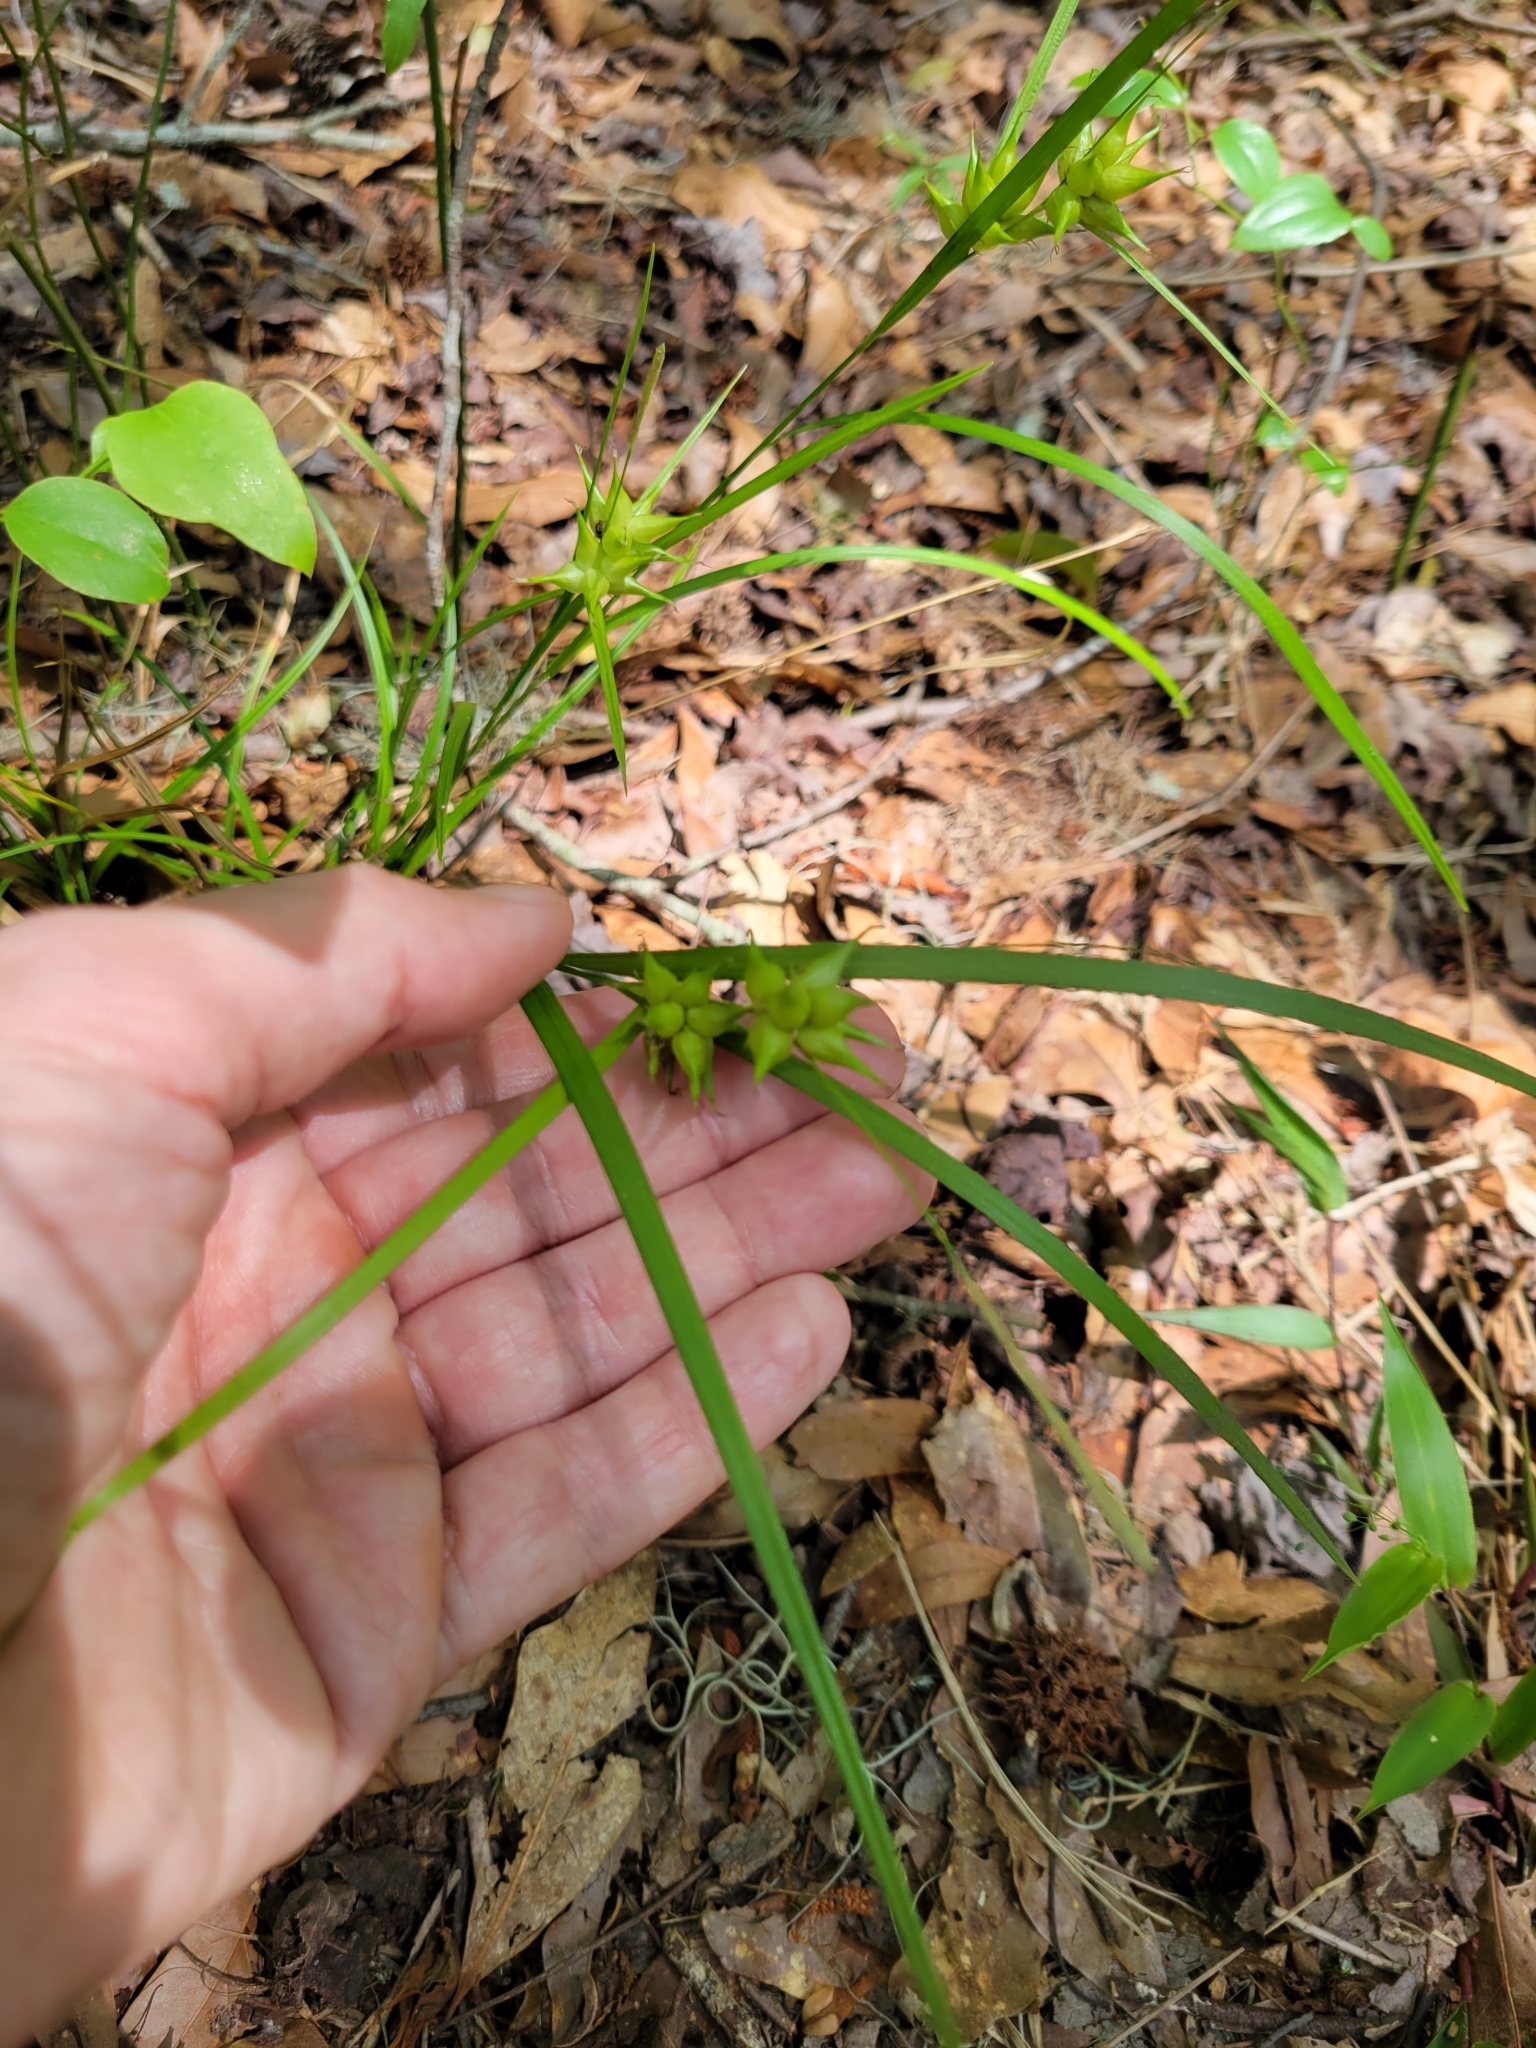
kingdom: Plantae
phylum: Tracheophyta
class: Liliopsida
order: Poales
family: Cyperaceae
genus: Carex
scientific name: Carex intumescens
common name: Greater bladder sedge
